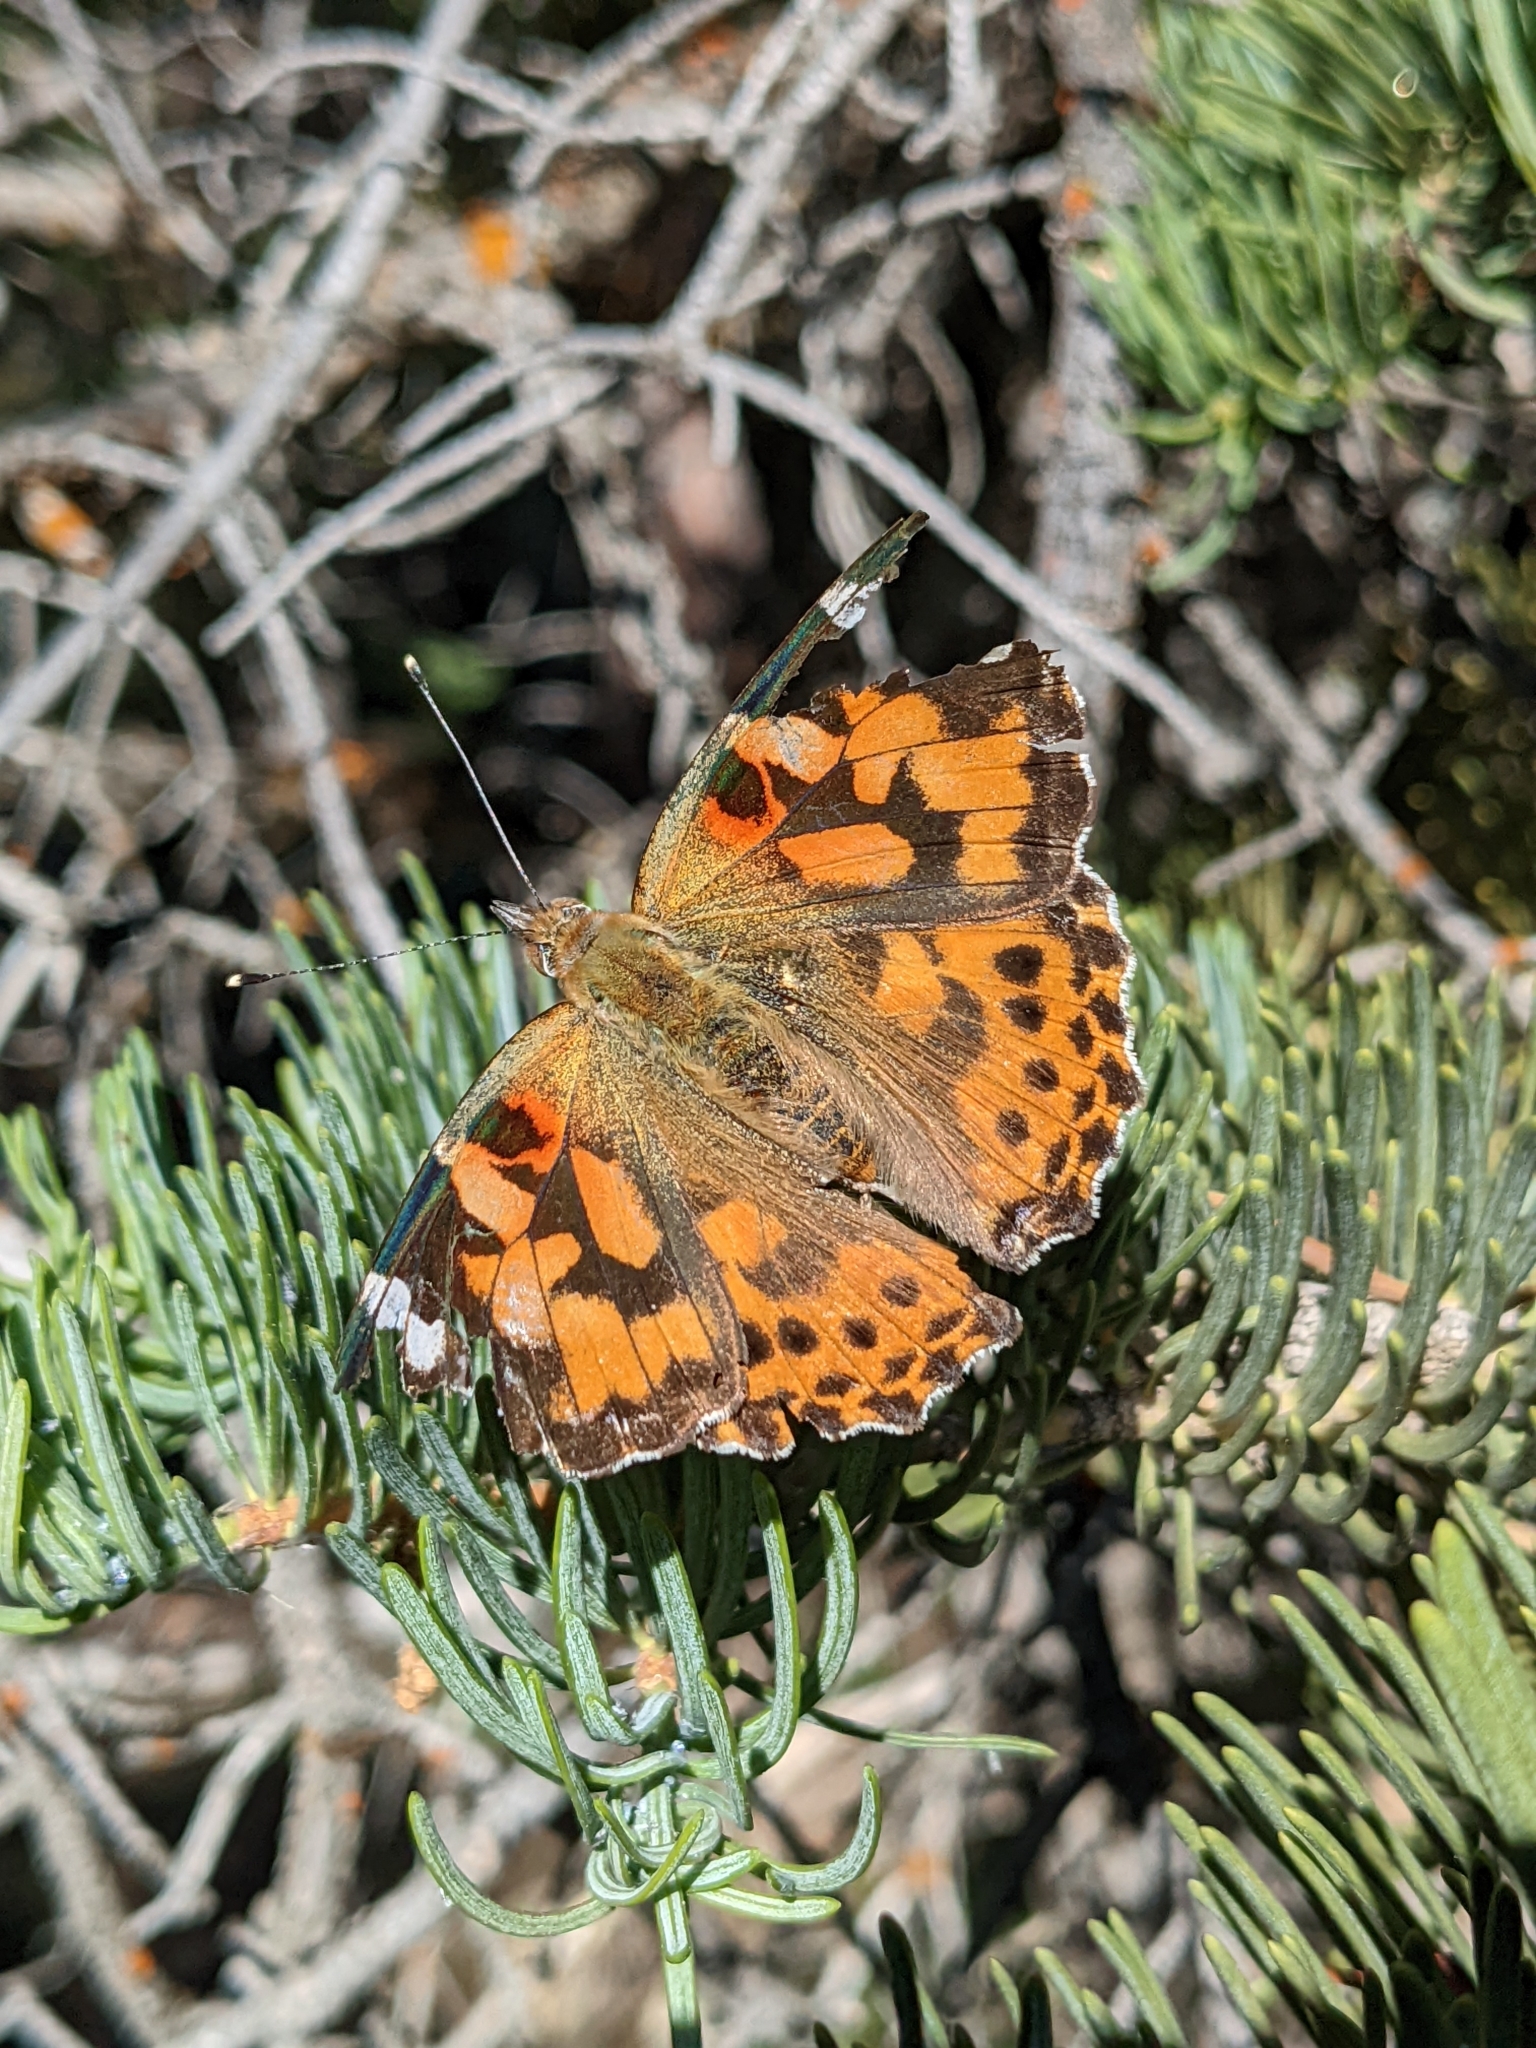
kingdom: Animalia
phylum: Arthropoda
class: Insecta
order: Lepidoptera
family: Nymphalidae
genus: Vanessa
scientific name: Vanessa cardui
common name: Painted lady
